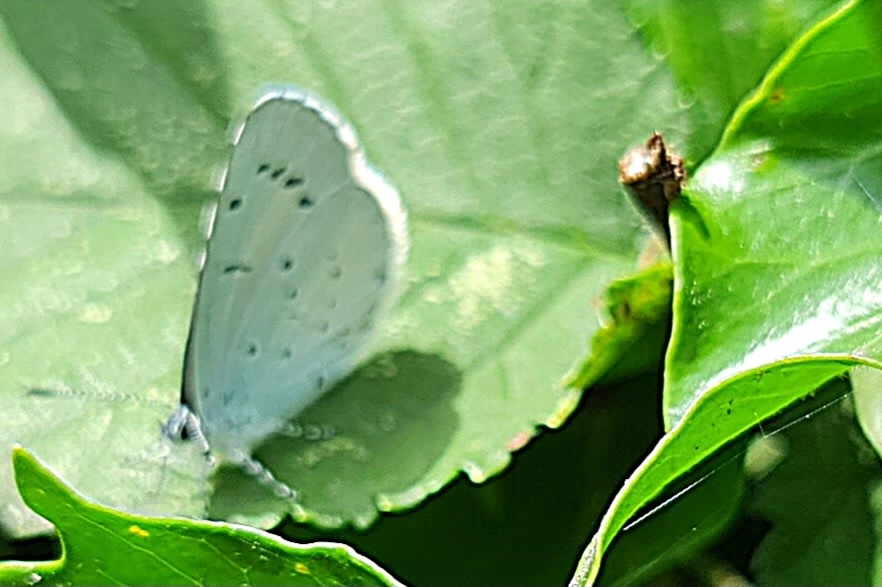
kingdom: Animalia
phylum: Arthropoda
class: Insecta
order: Lepidoptera
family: Lycaenidae
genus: Celastrina
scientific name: Celastrina argiolus
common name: Holly blue
